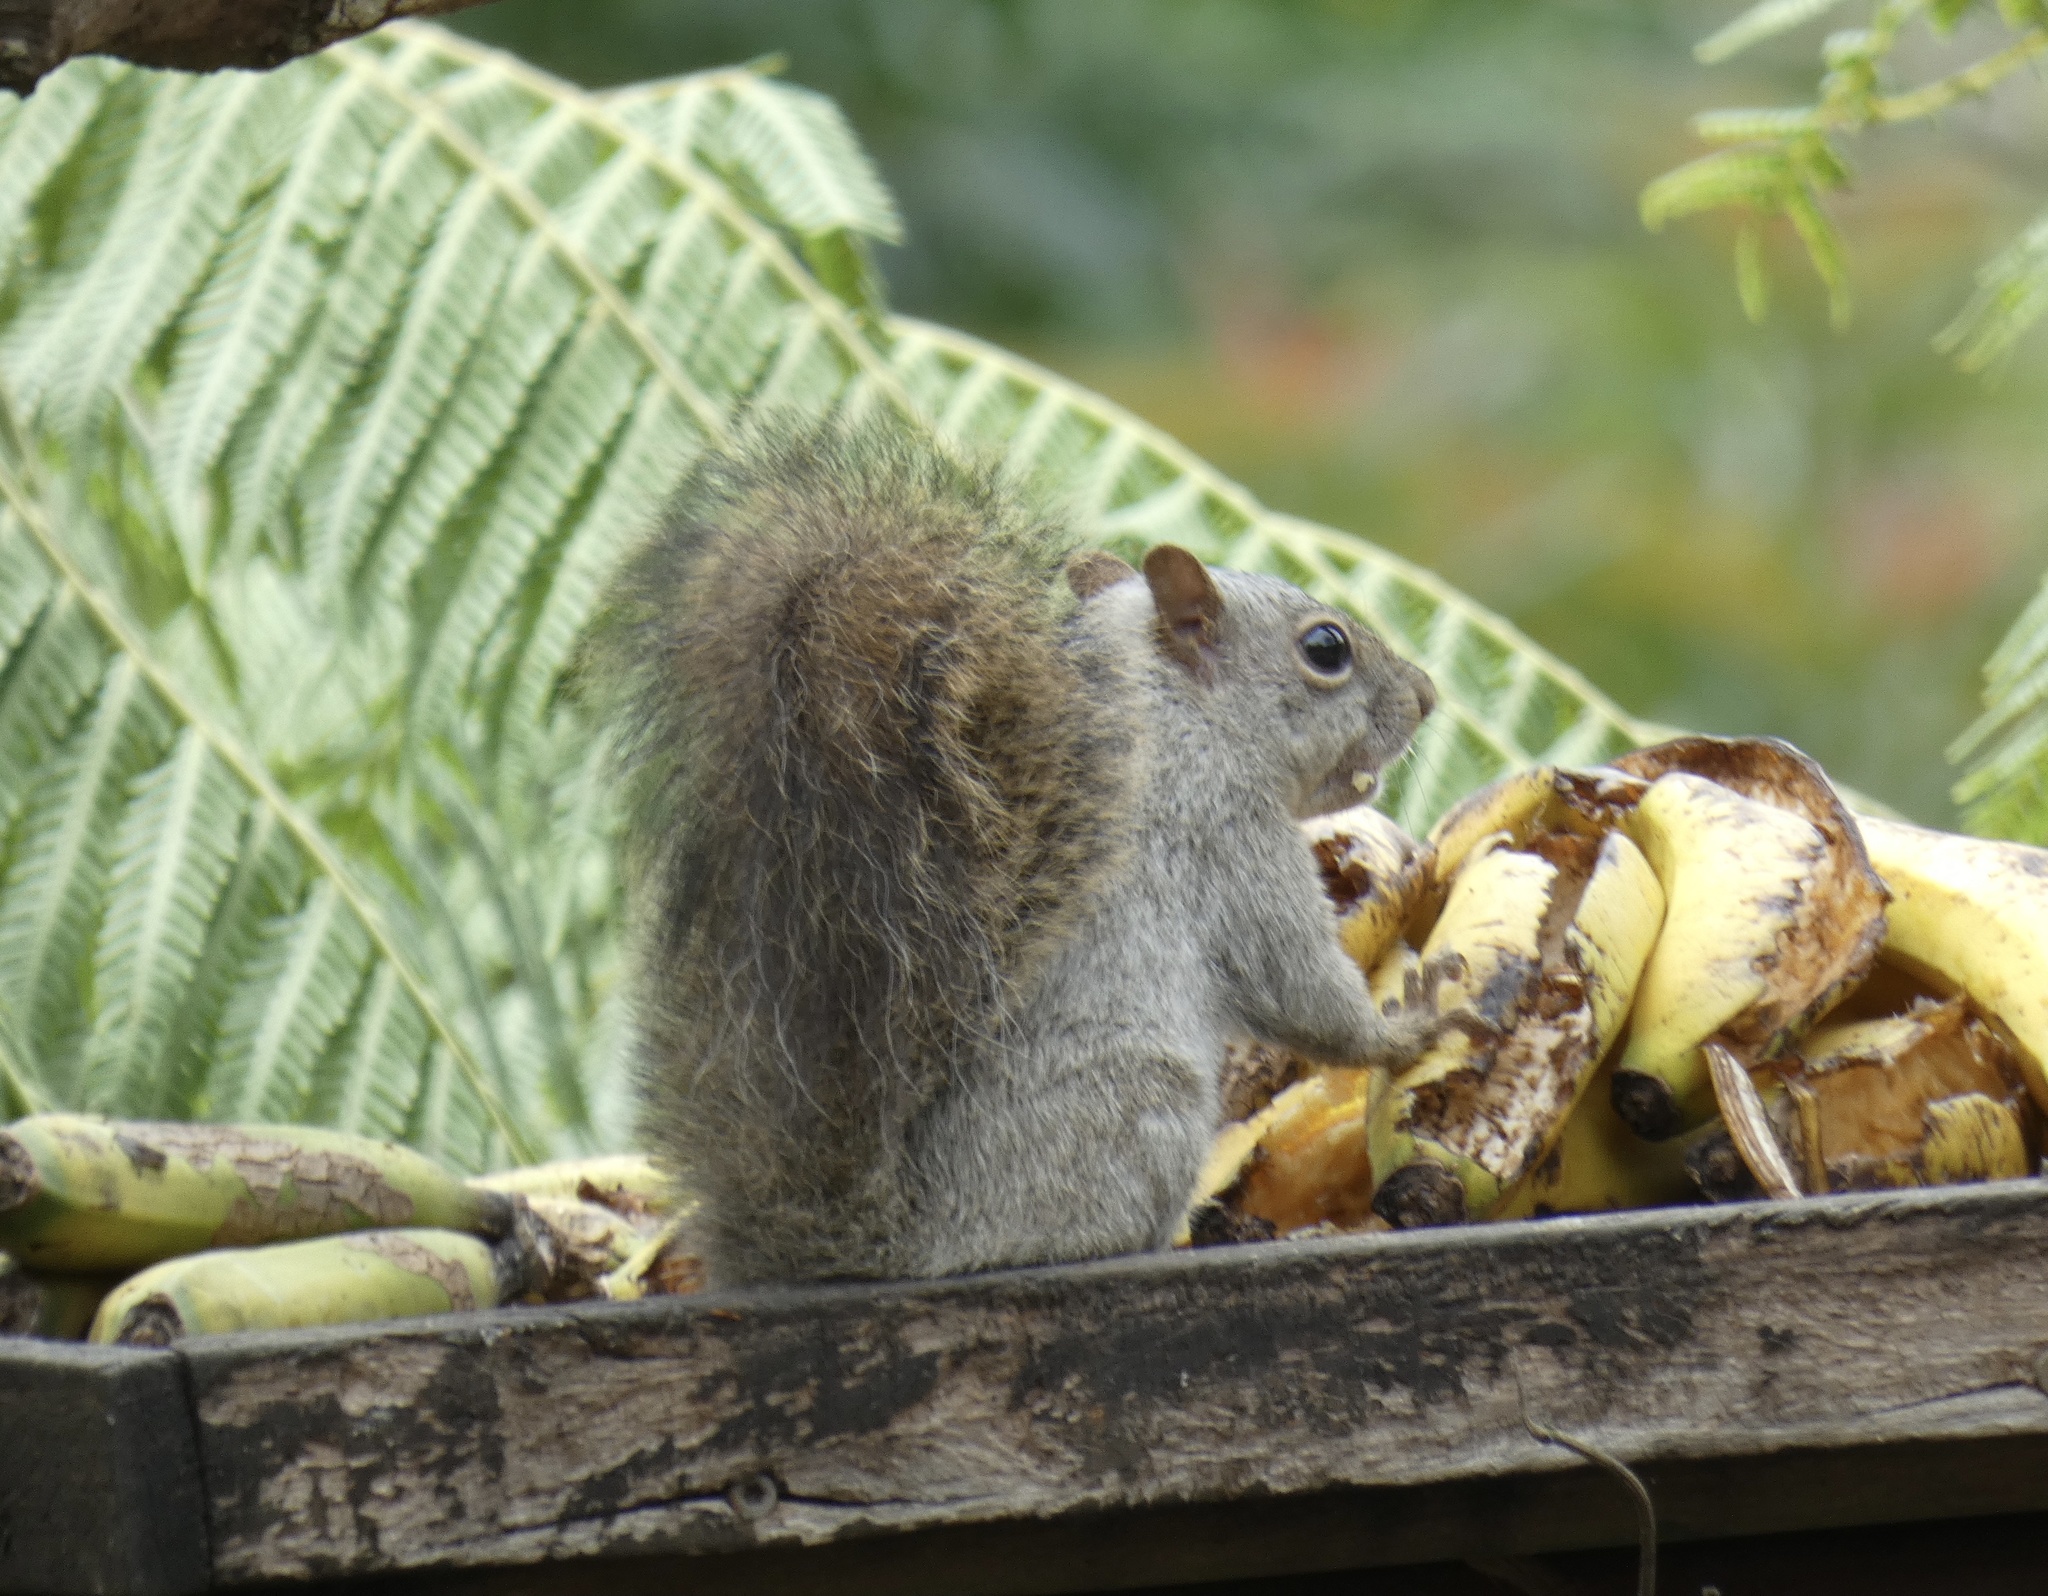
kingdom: Animalia
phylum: Chordata
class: Mammalia
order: Rodentia
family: Sciuridae
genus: Sciurus
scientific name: Sciurus aestuans
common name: Guianan squirrel
